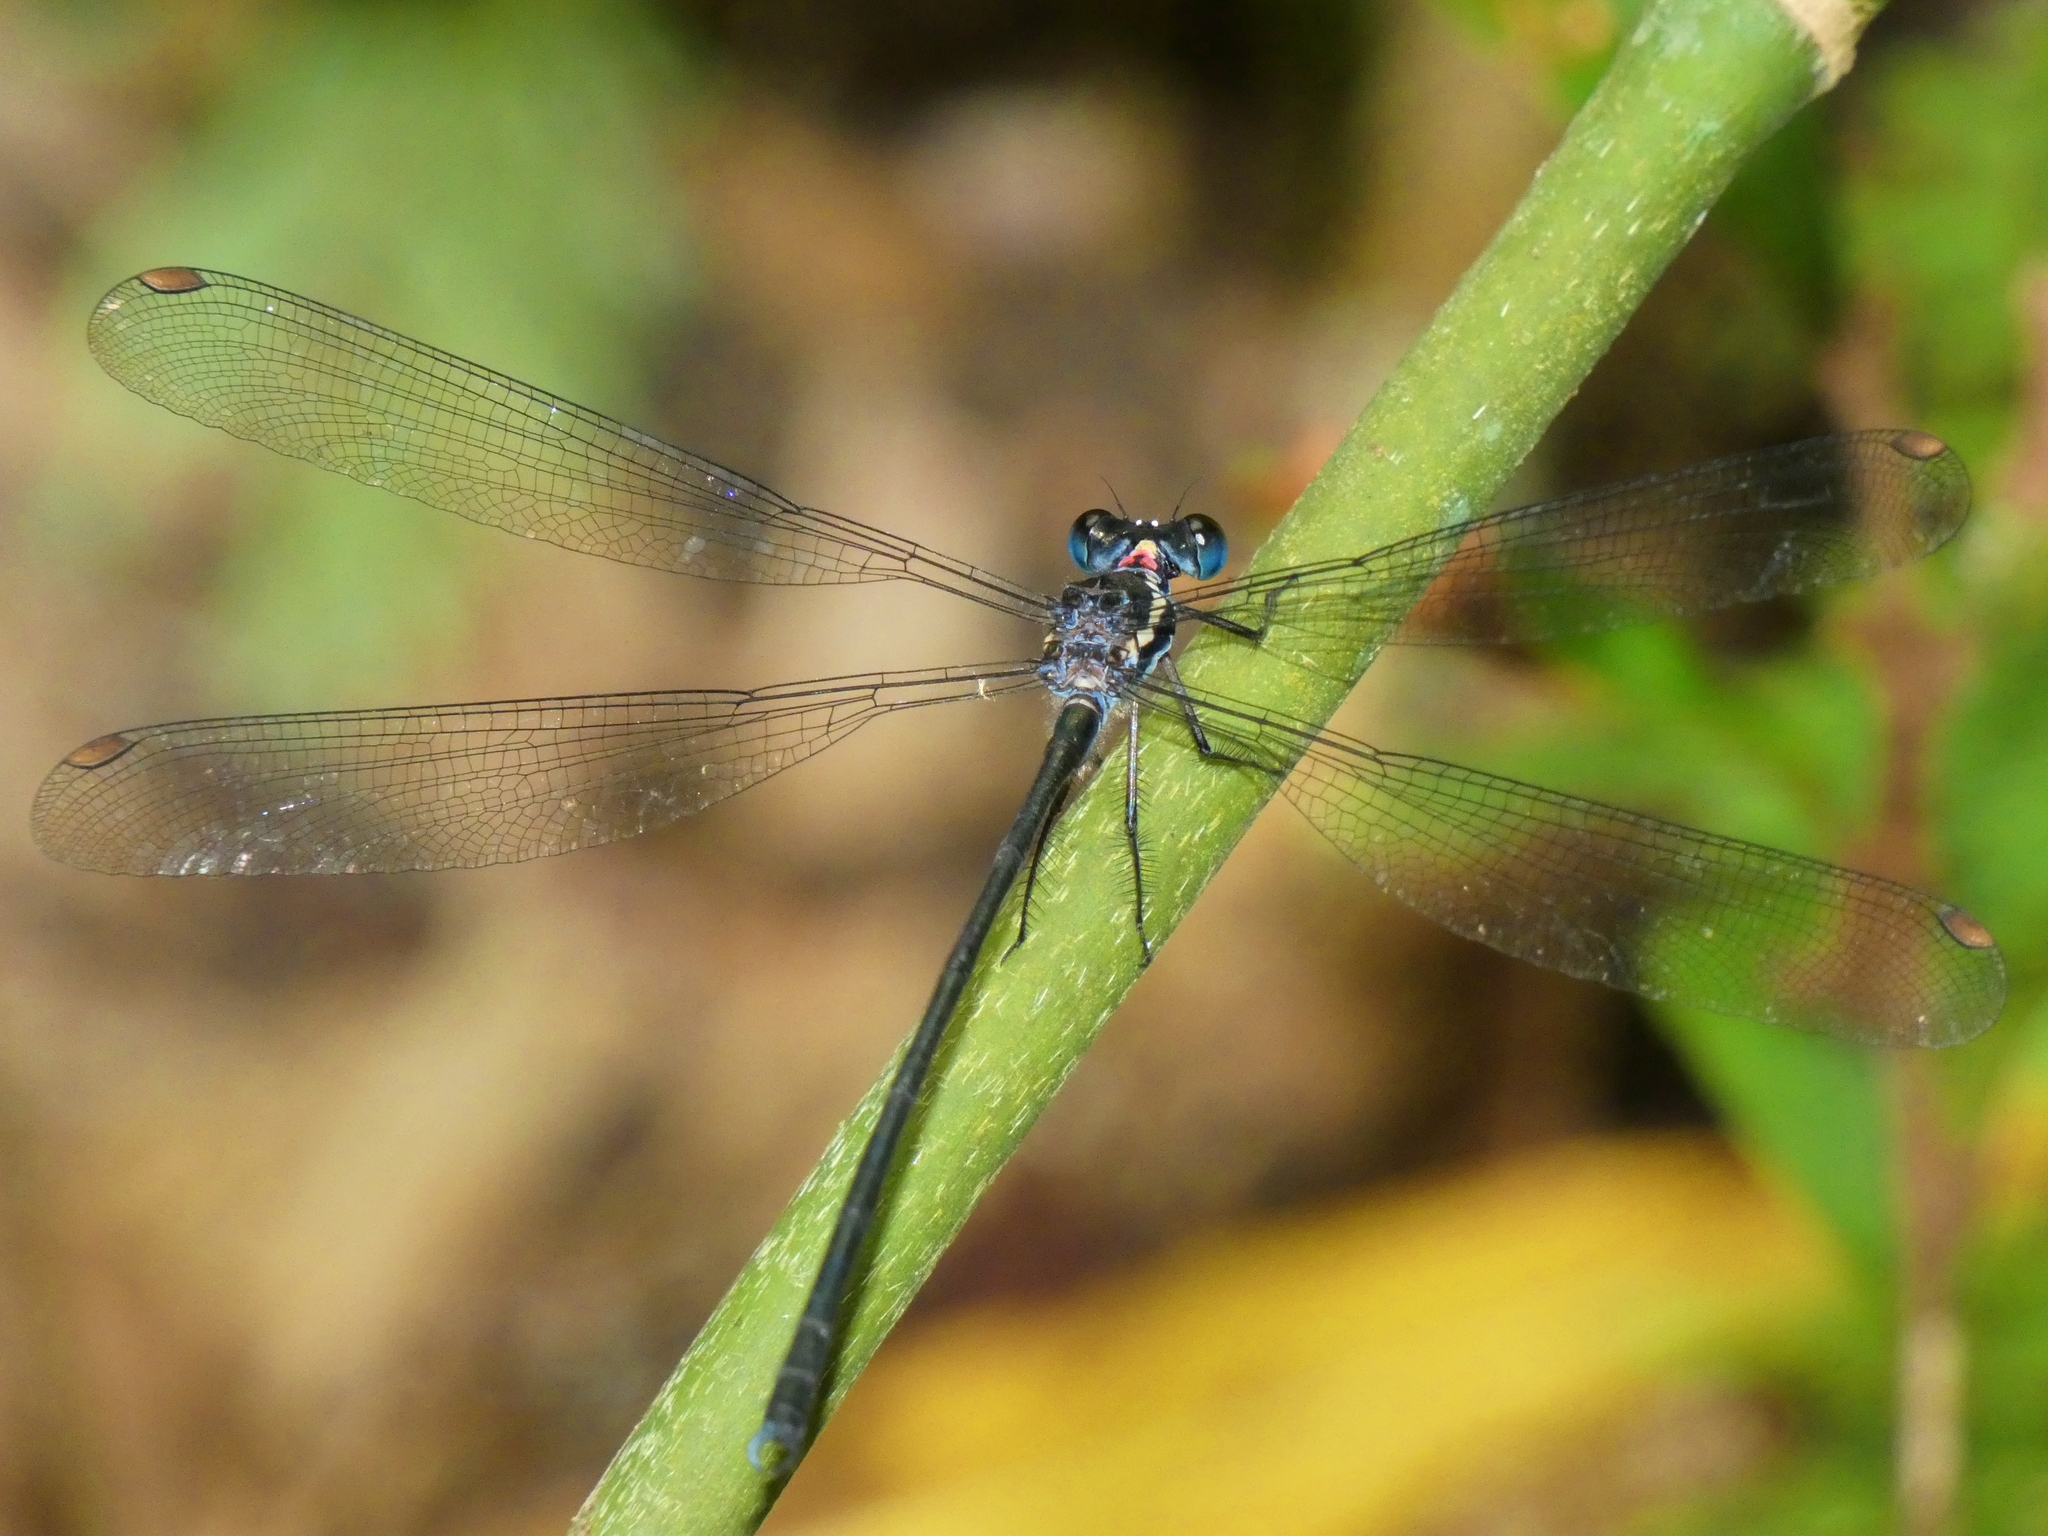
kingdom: Animalia
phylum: Arthropoda
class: Insecta
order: Odonata
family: Argiolestidae
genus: Podopteryx
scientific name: Podopteryx selysi
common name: Treehole flatwing
